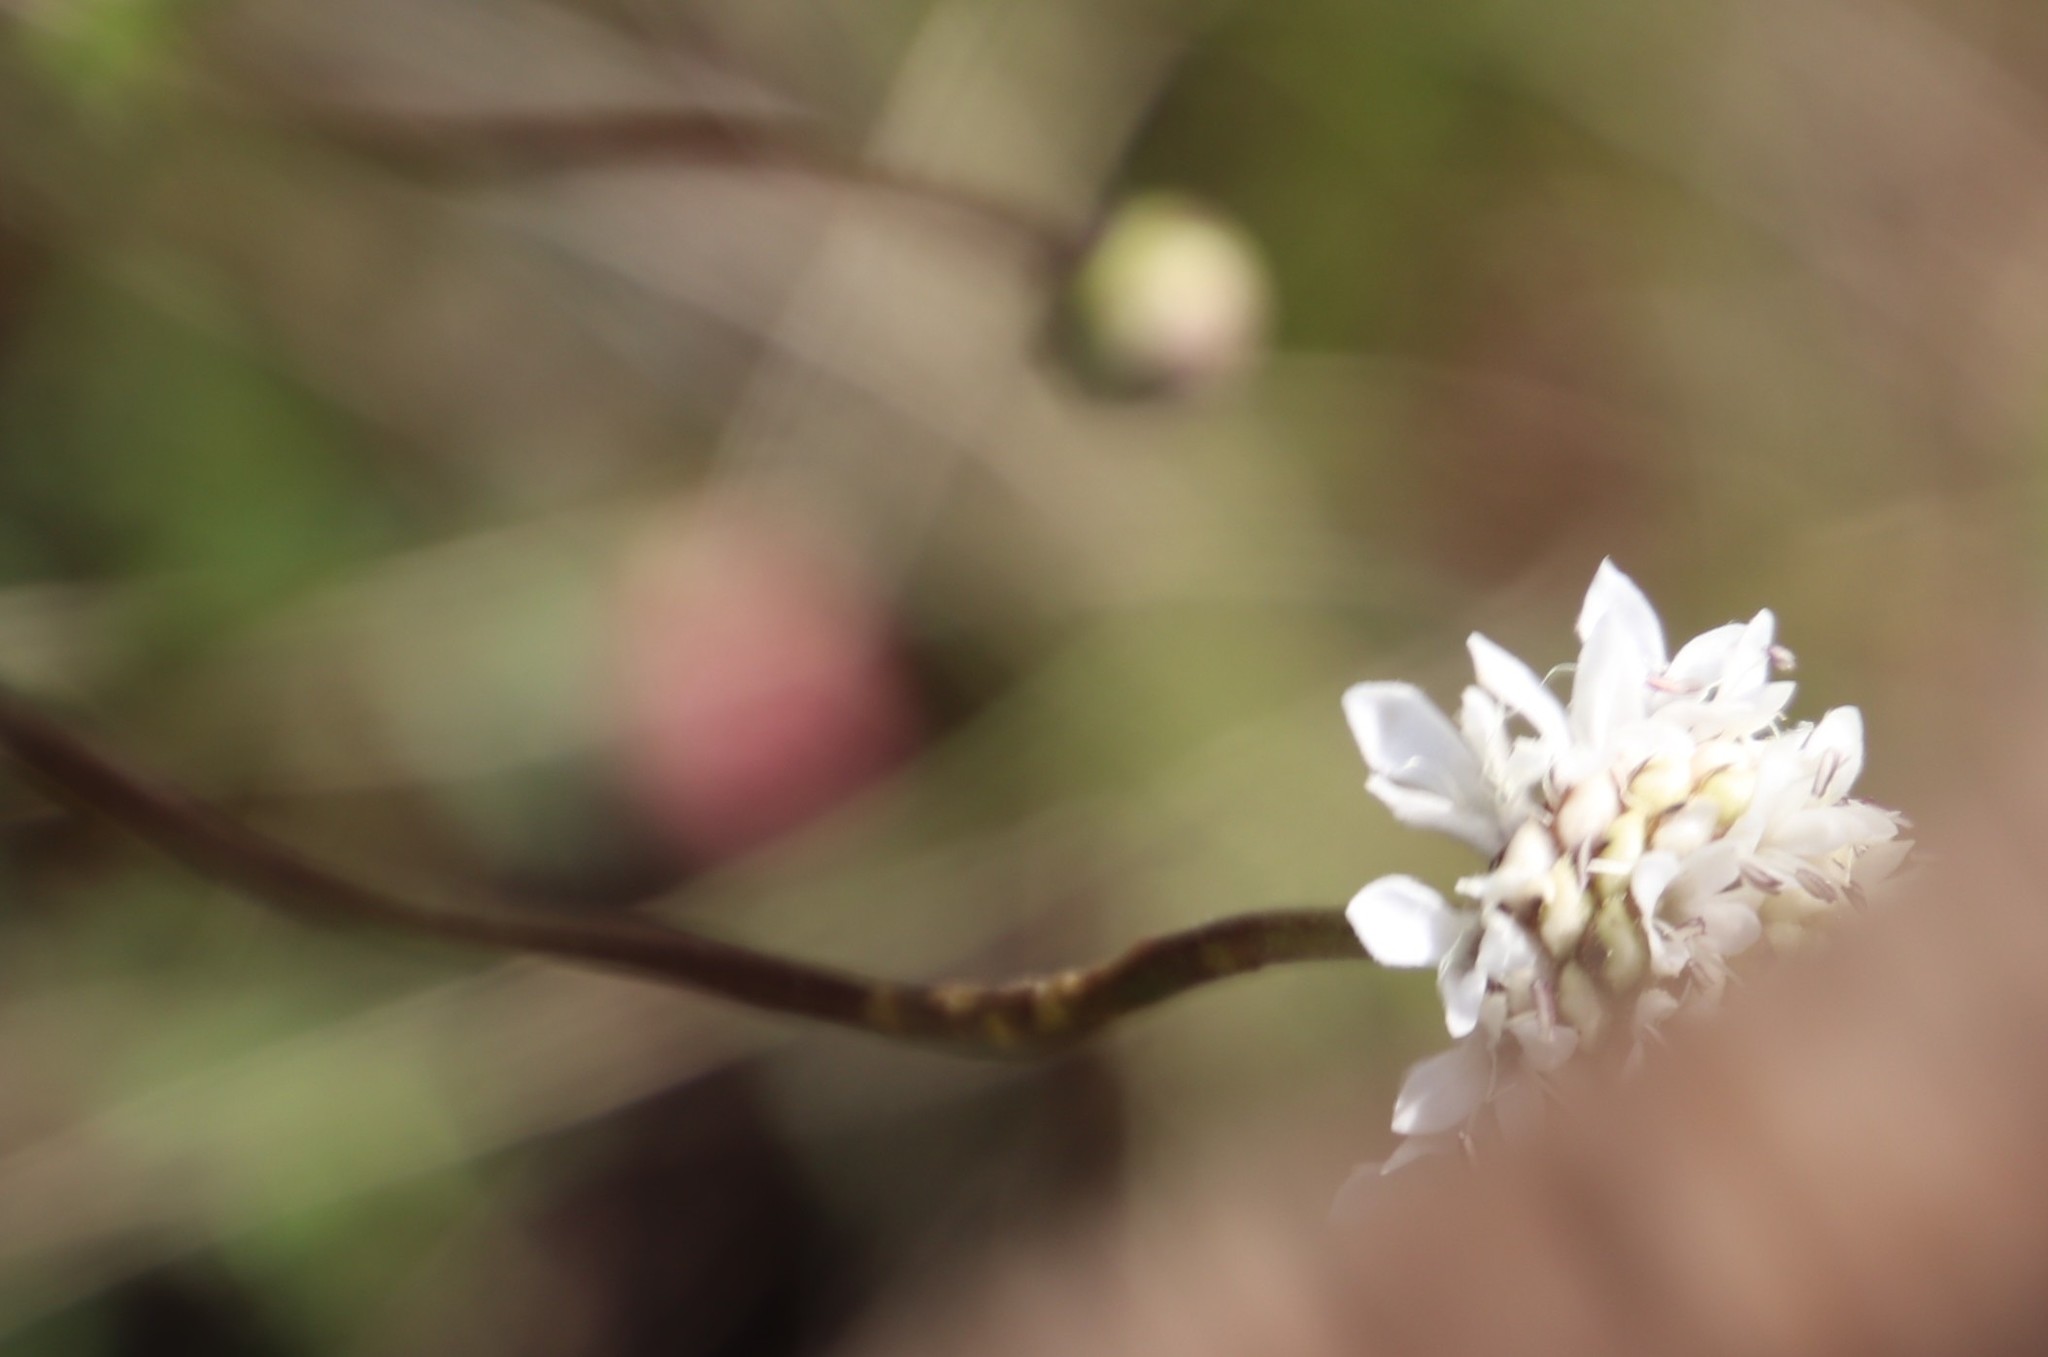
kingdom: Plantae
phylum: Tracheophyta
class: Magnoliopsida
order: Dipsacales
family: Caprifoliaceae
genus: Scabiosa
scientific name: Scabiosa columbaria
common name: Small scabious
